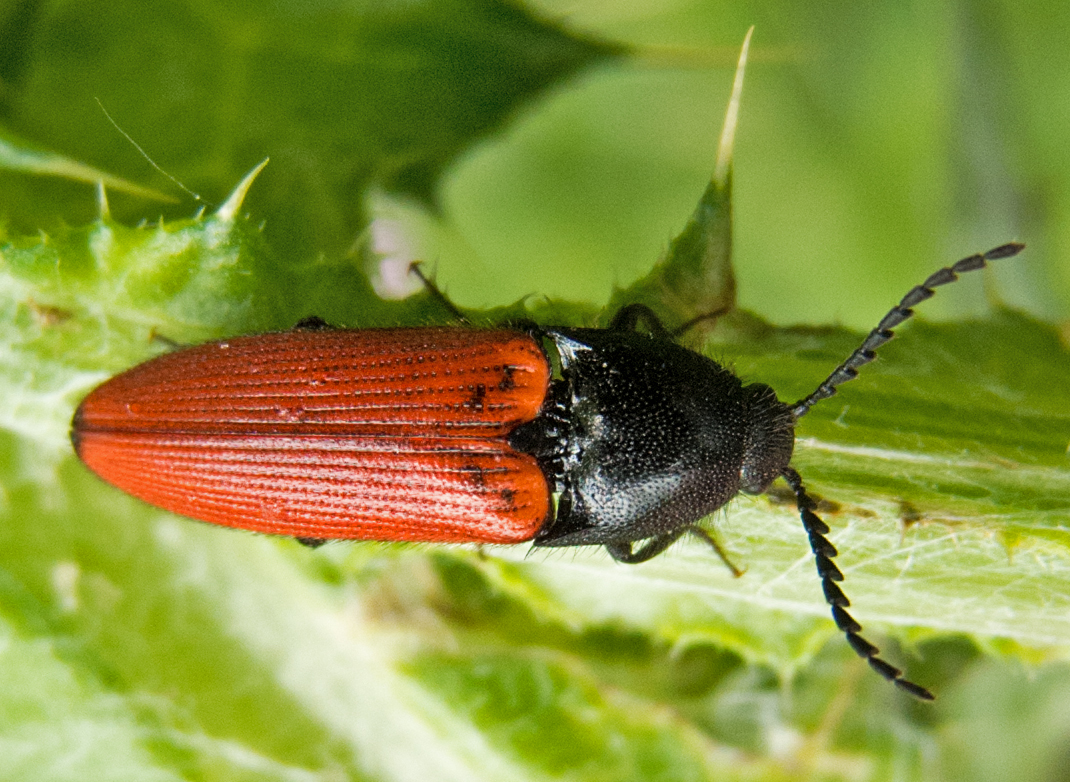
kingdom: Animalia
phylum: Arthropoda
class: Insecta
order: Coleoptera
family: Elateridae
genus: Ampedus
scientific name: Ampedus rufipennis
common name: Red-horned cardinal click beetle
